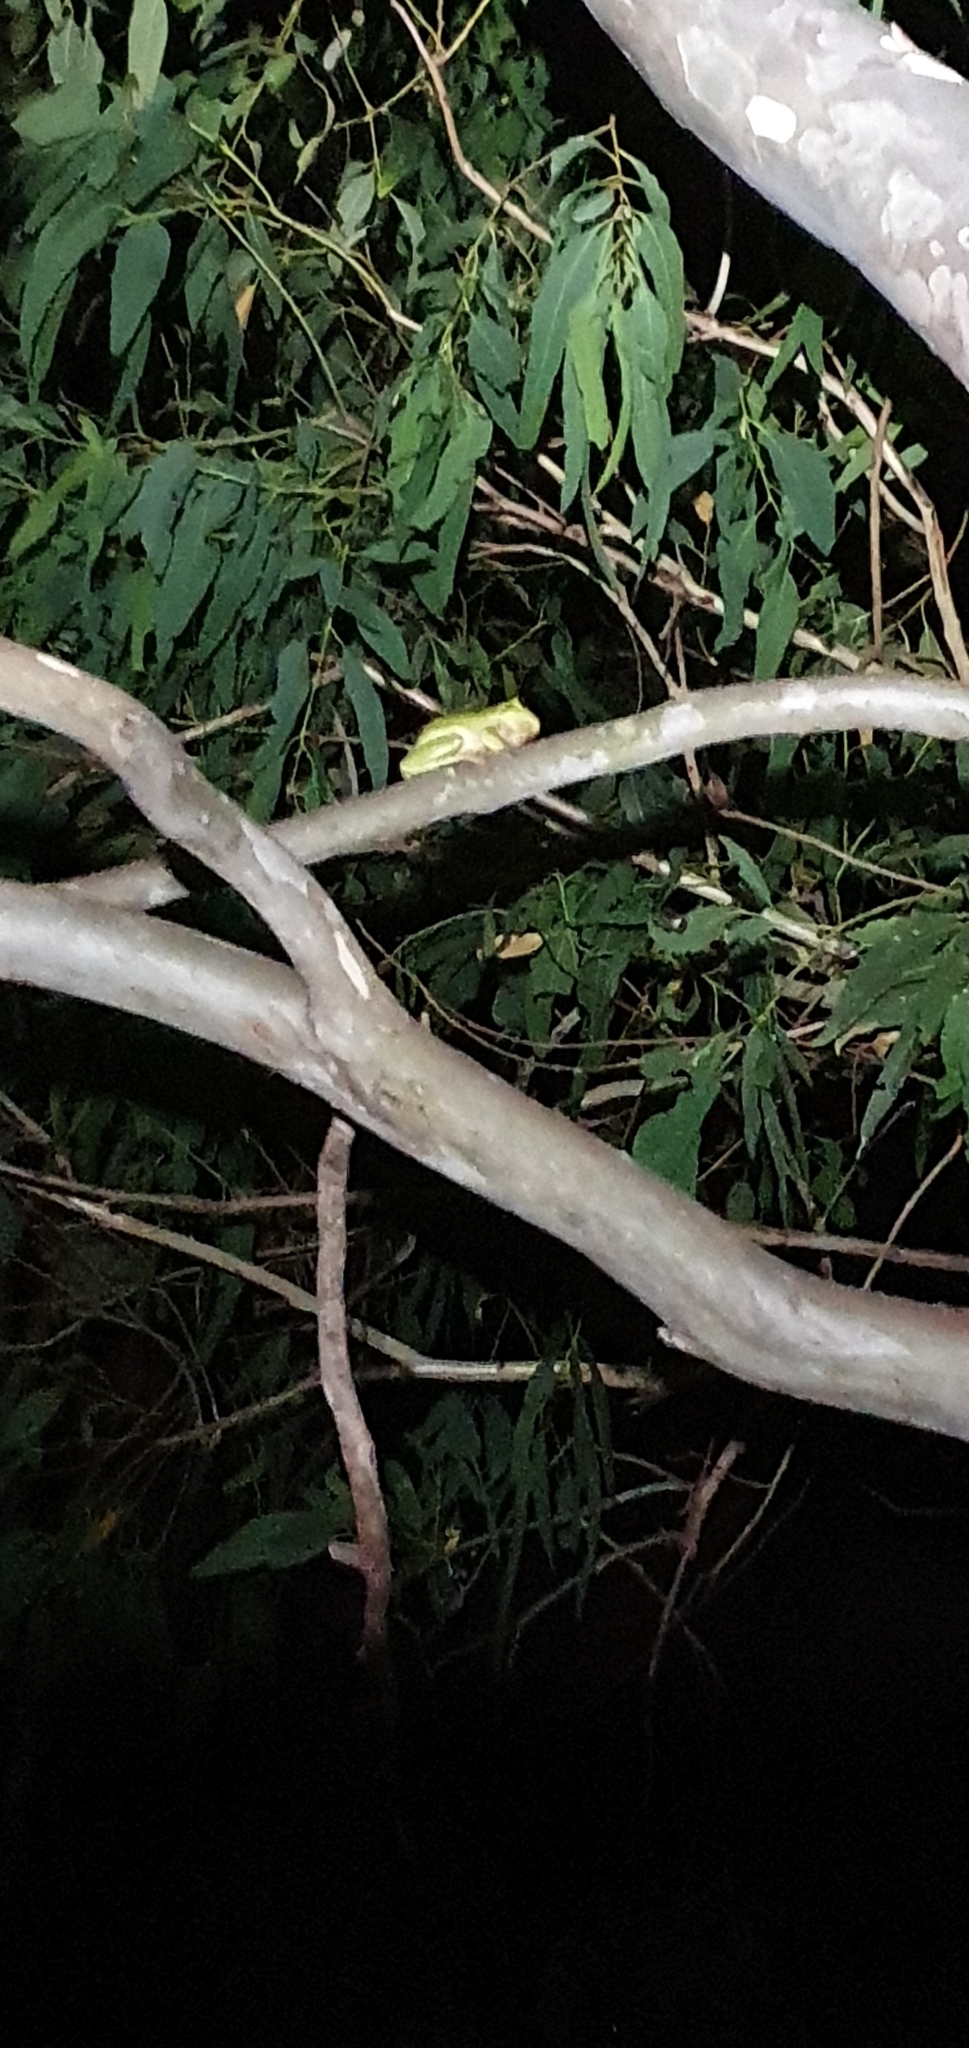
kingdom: Animalia
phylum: Chordata
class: Amphibia
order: Anura
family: Pelodryadidae
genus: Ranoidea
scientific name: Ranoidea caerulea
